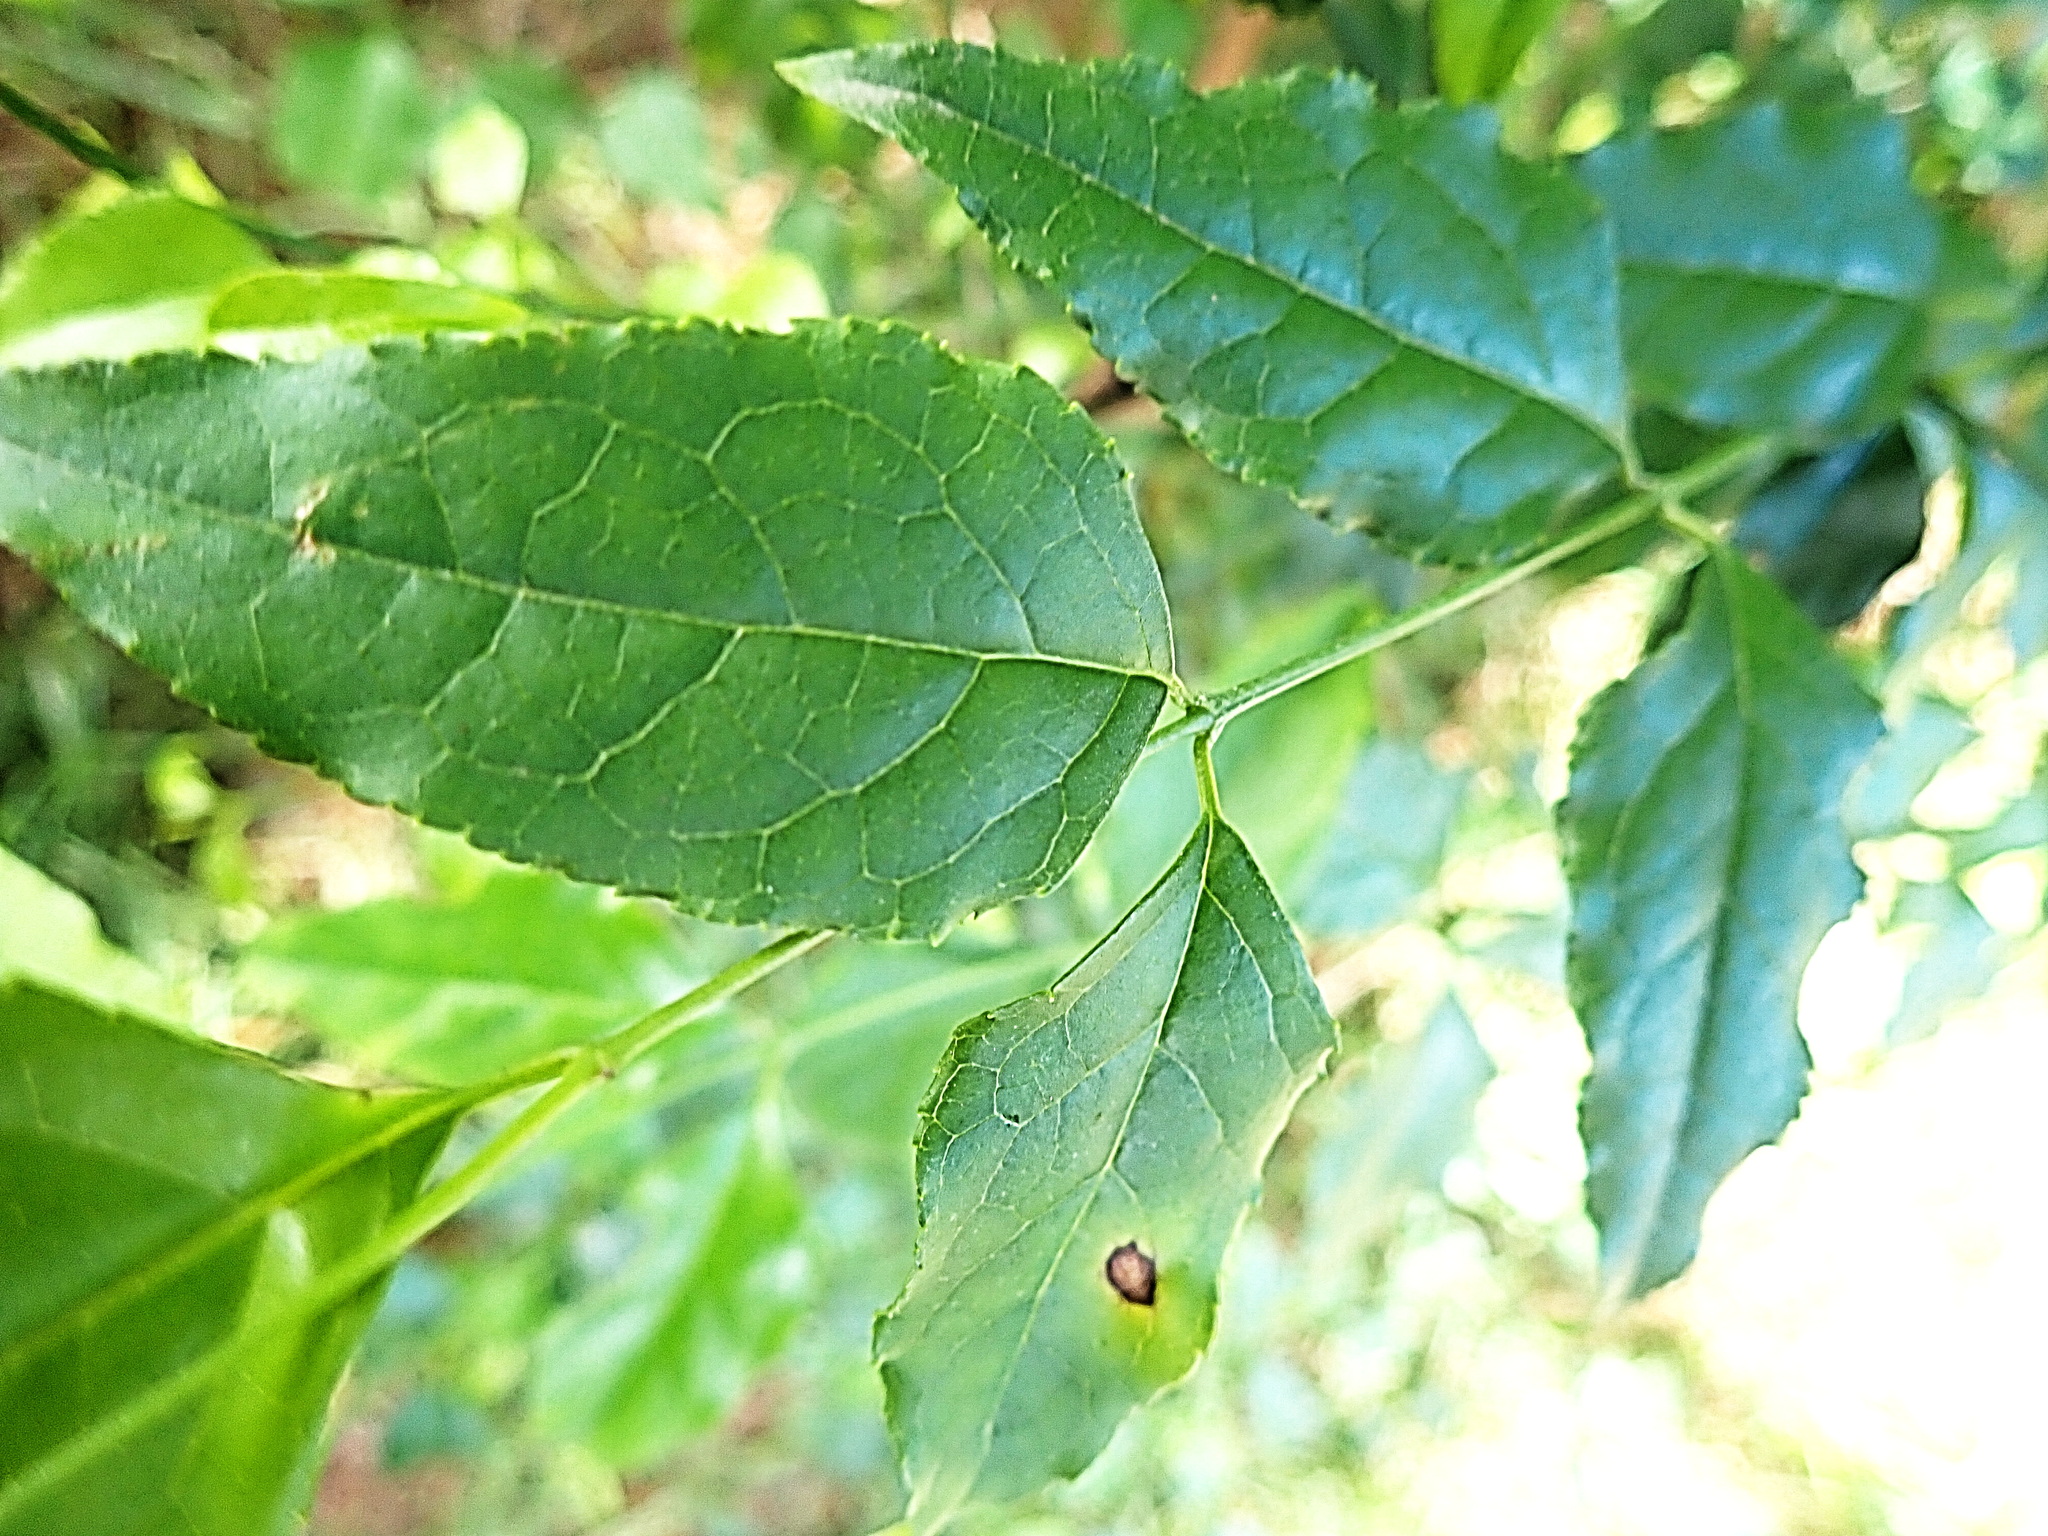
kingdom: Plantae
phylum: Tracheophyta
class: Magnoliopsida
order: Lamiales
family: Stilbaceae
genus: Halleria
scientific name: Halleria lucida
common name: Tree fuschia
